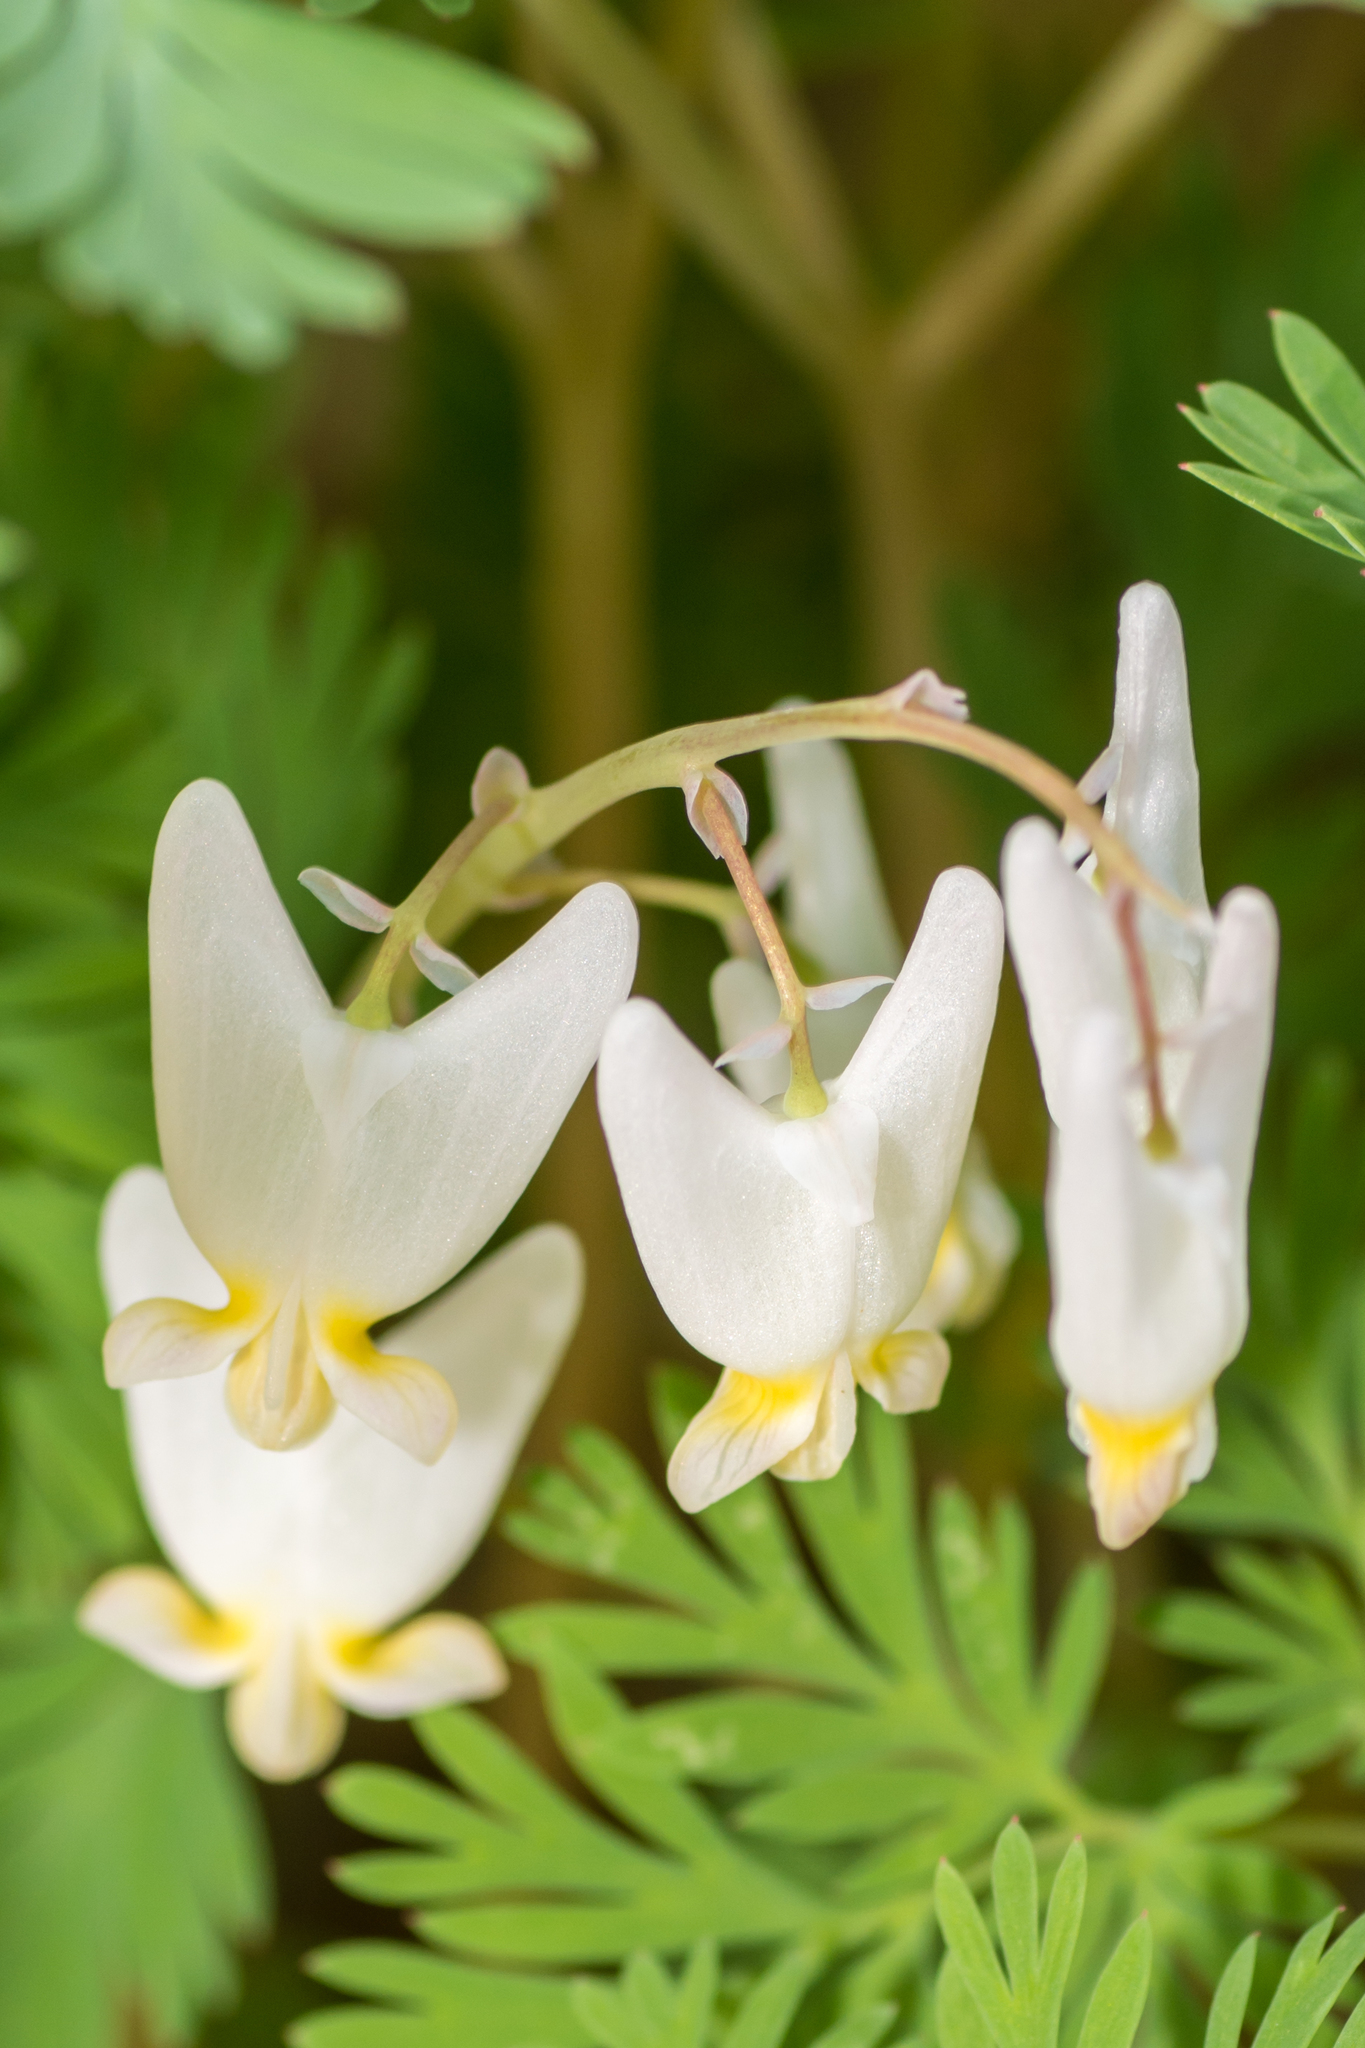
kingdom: Plantae
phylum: Tracheophyta
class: Magnoliopsida
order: Ranunculales
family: Papaveraceae
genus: Dicentra
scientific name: Dicentra cucullaria
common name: Dutchman's breeches
